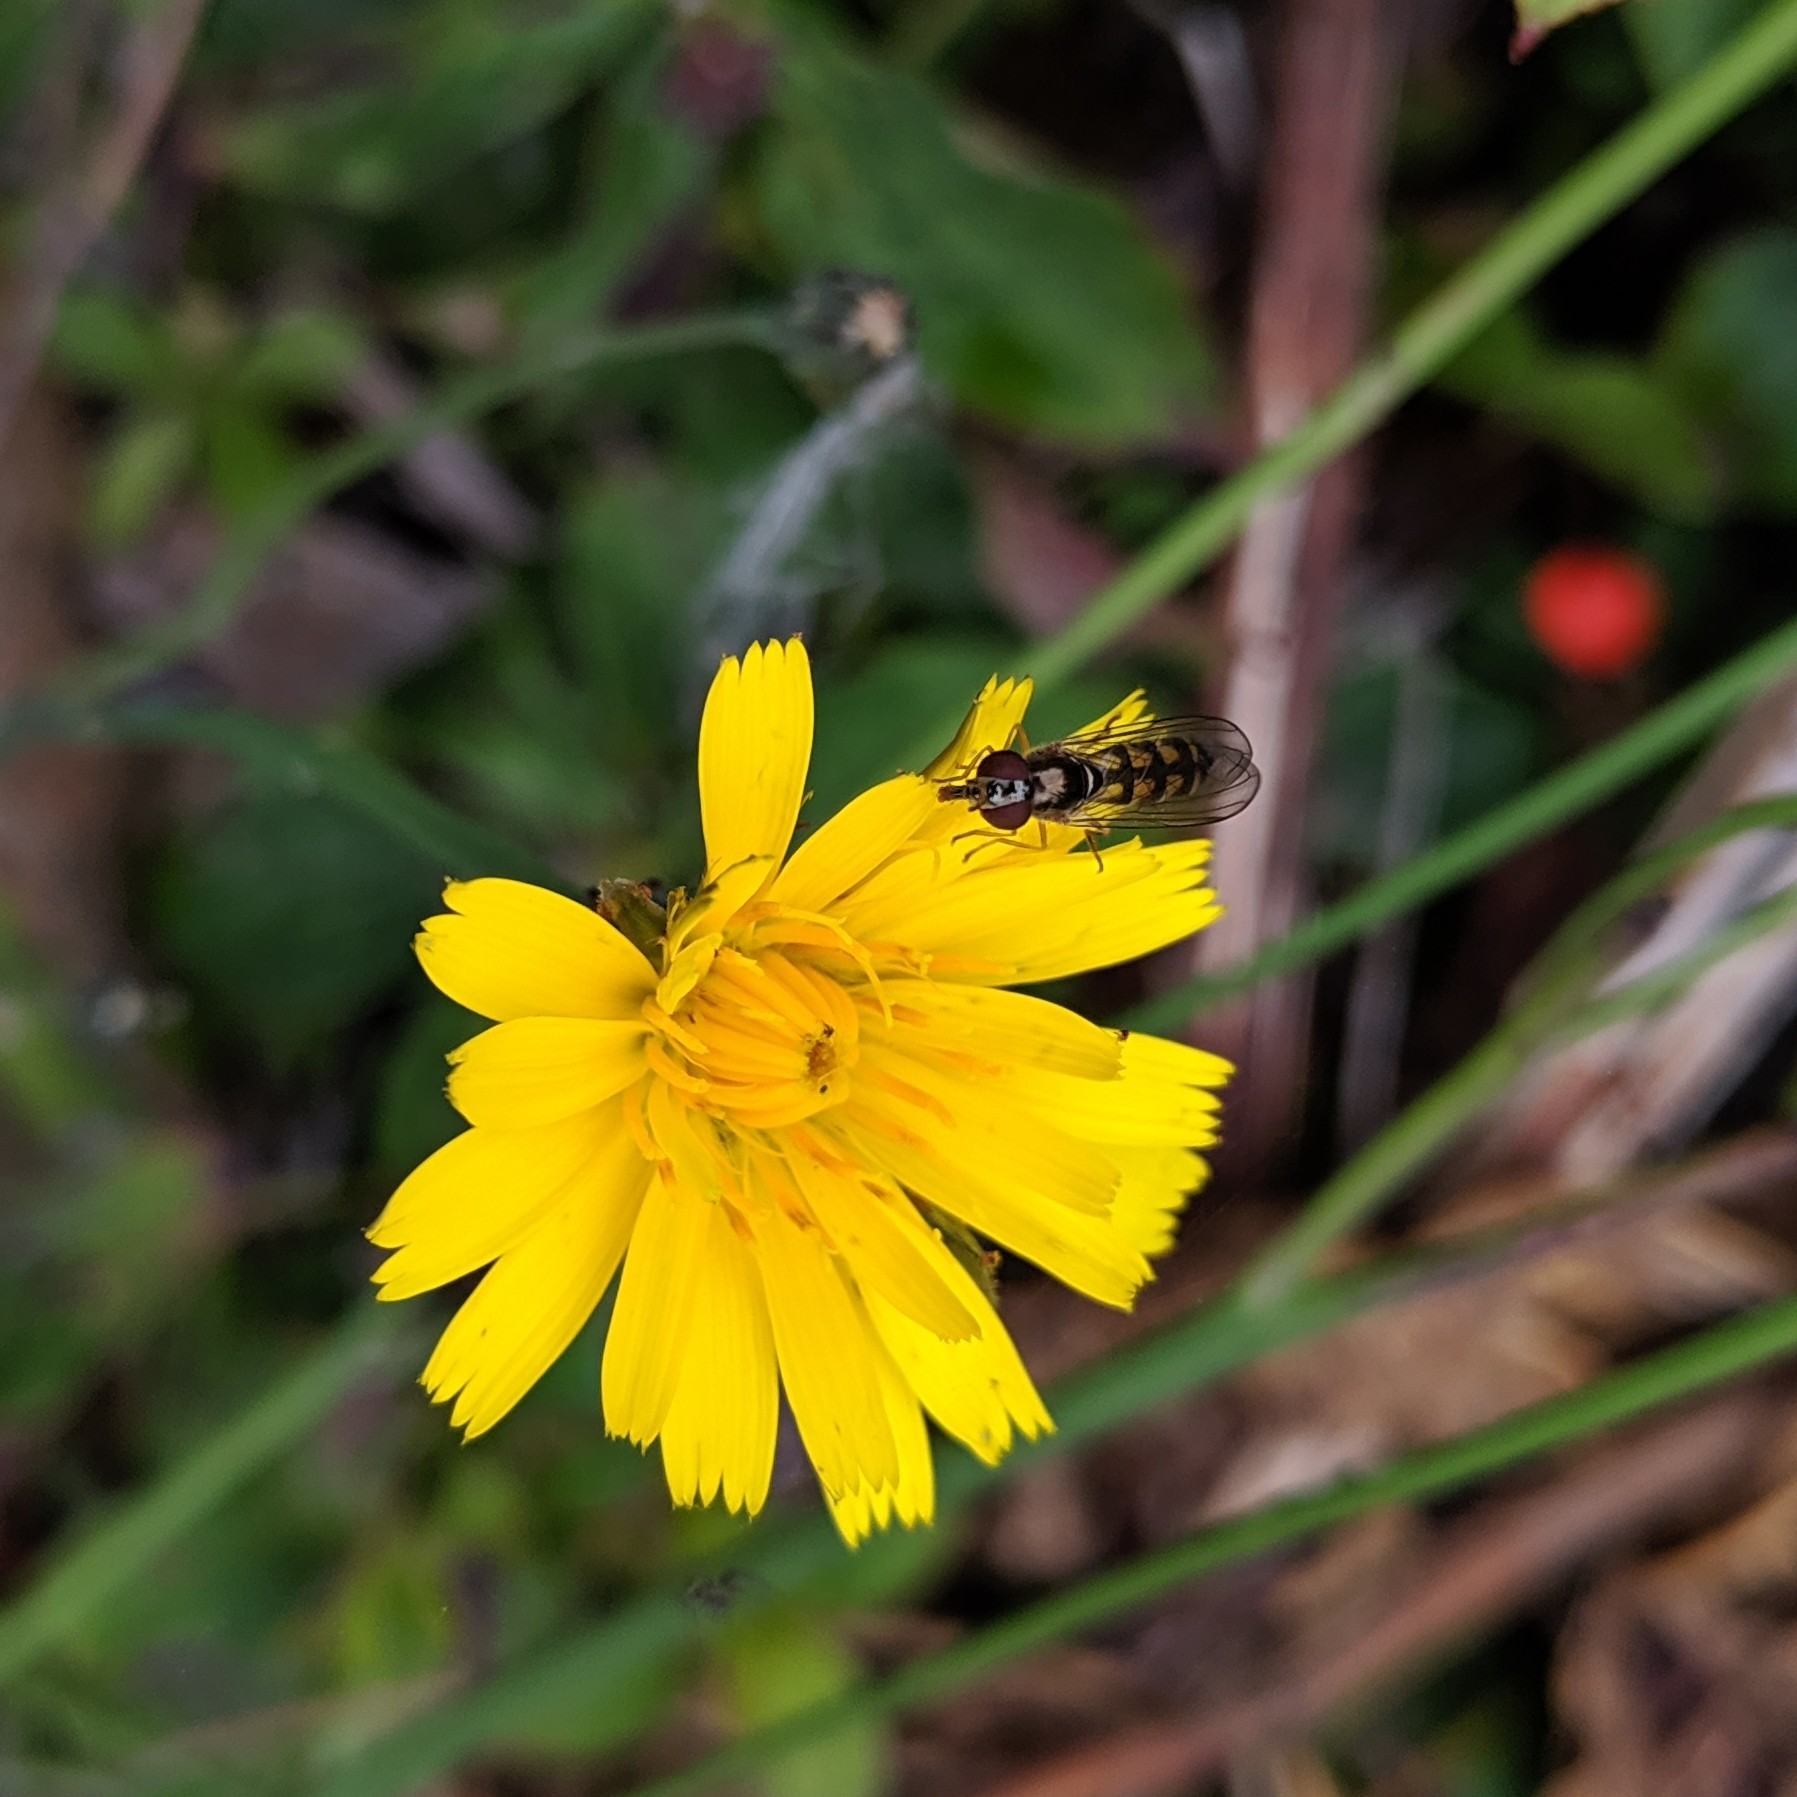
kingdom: Animalia
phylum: Arthropoda
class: Insecta
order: Diptera
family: Syrphidae
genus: Melanostoma
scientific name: Melanostoma mellina
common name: Hover fly
